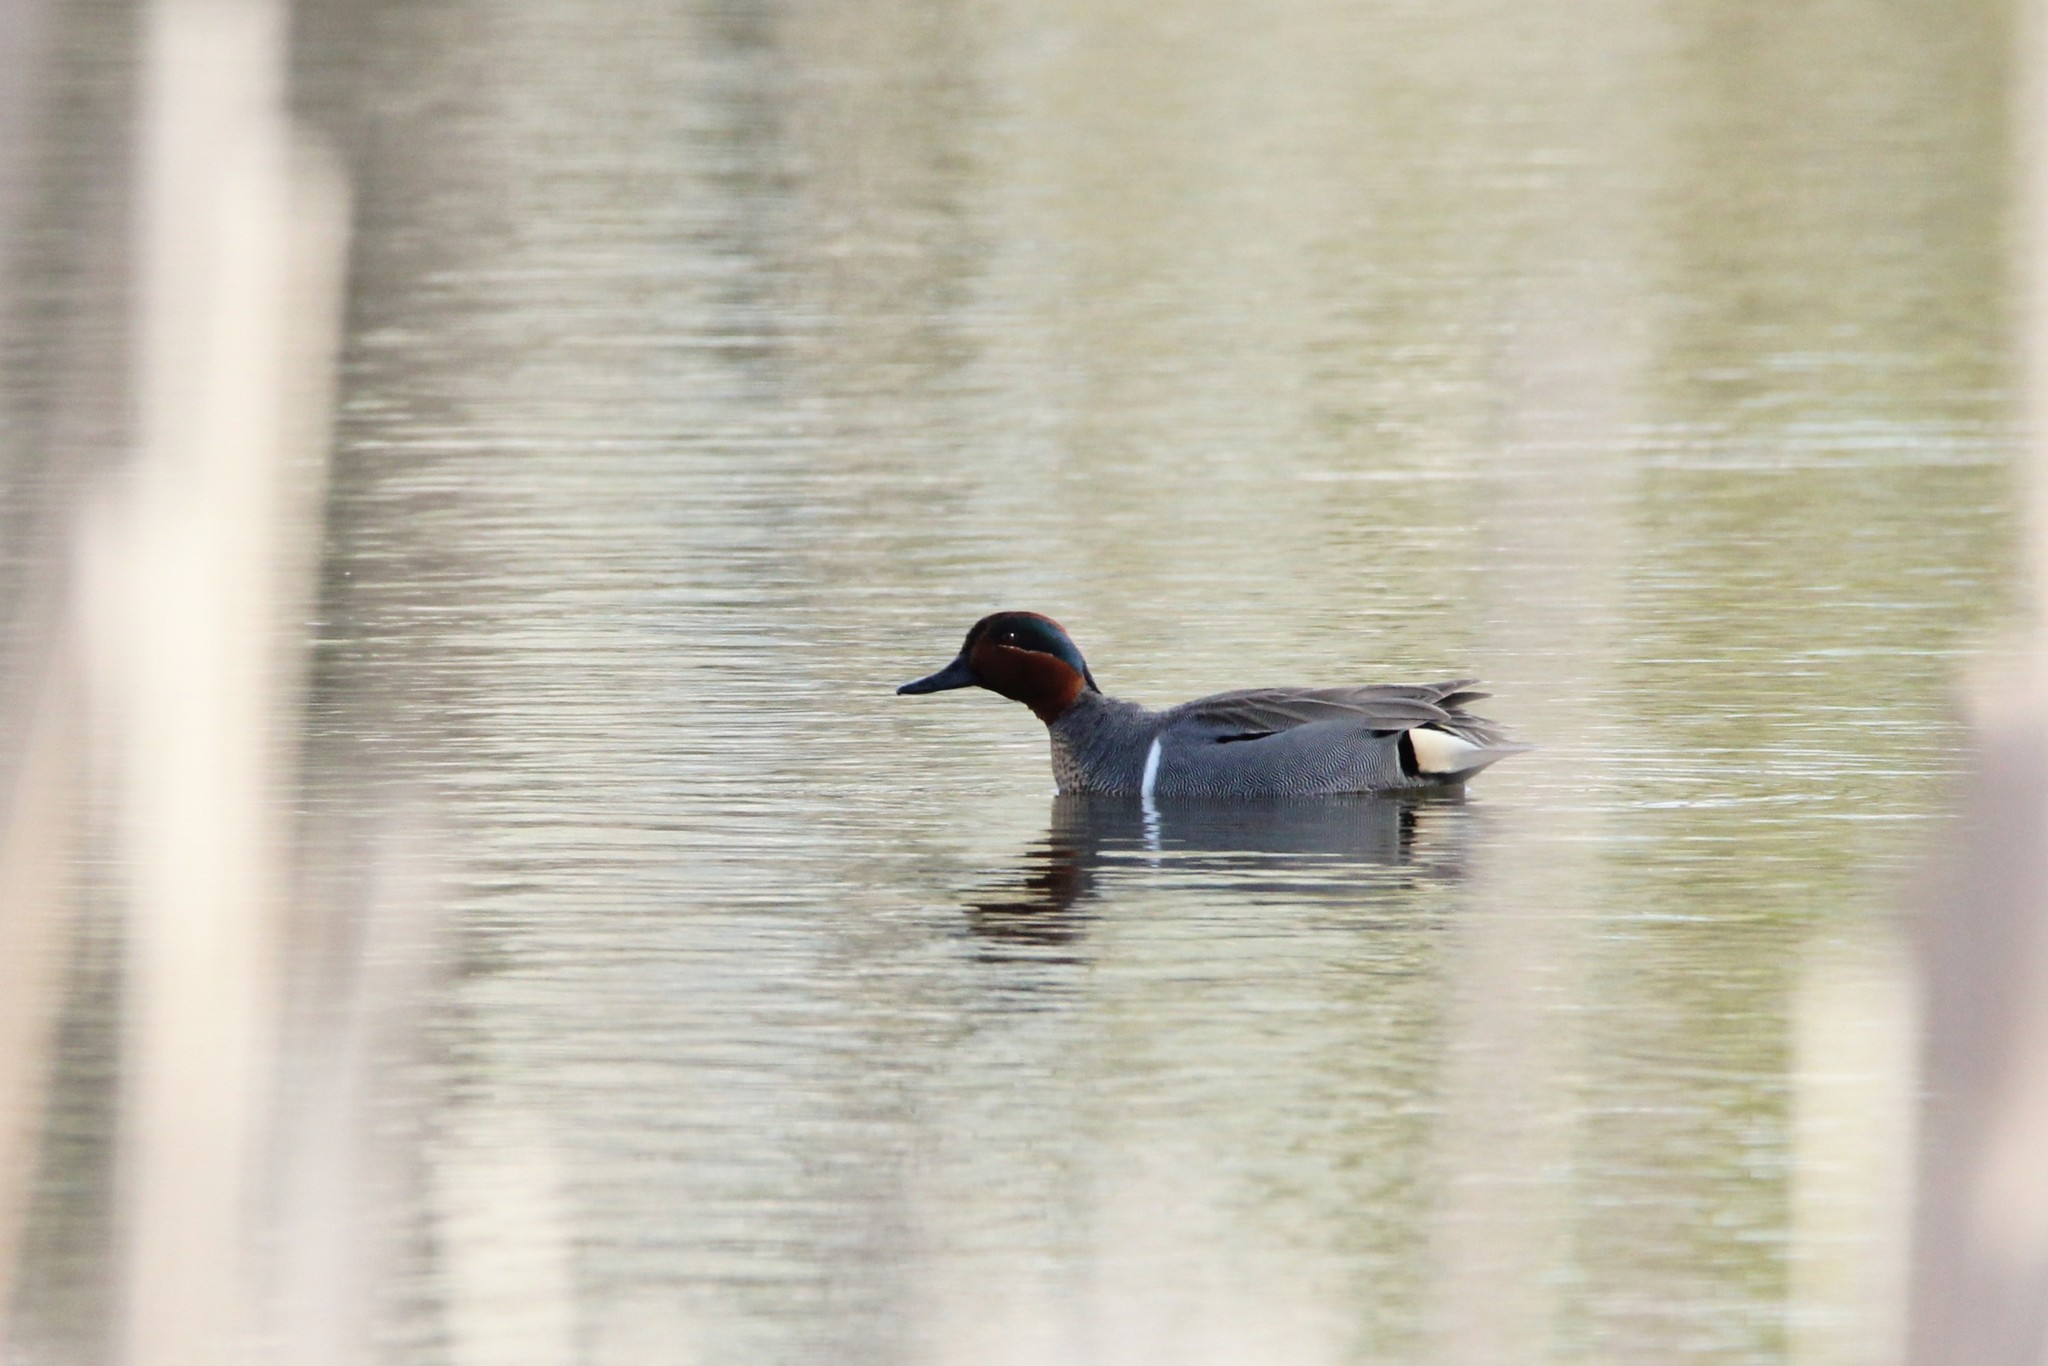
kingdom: Animalia
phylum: Chordata
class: Aves
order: Anseriformes
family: Anatidae
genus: Anas
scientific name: Anas carolinensis
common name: Green-winged teal
